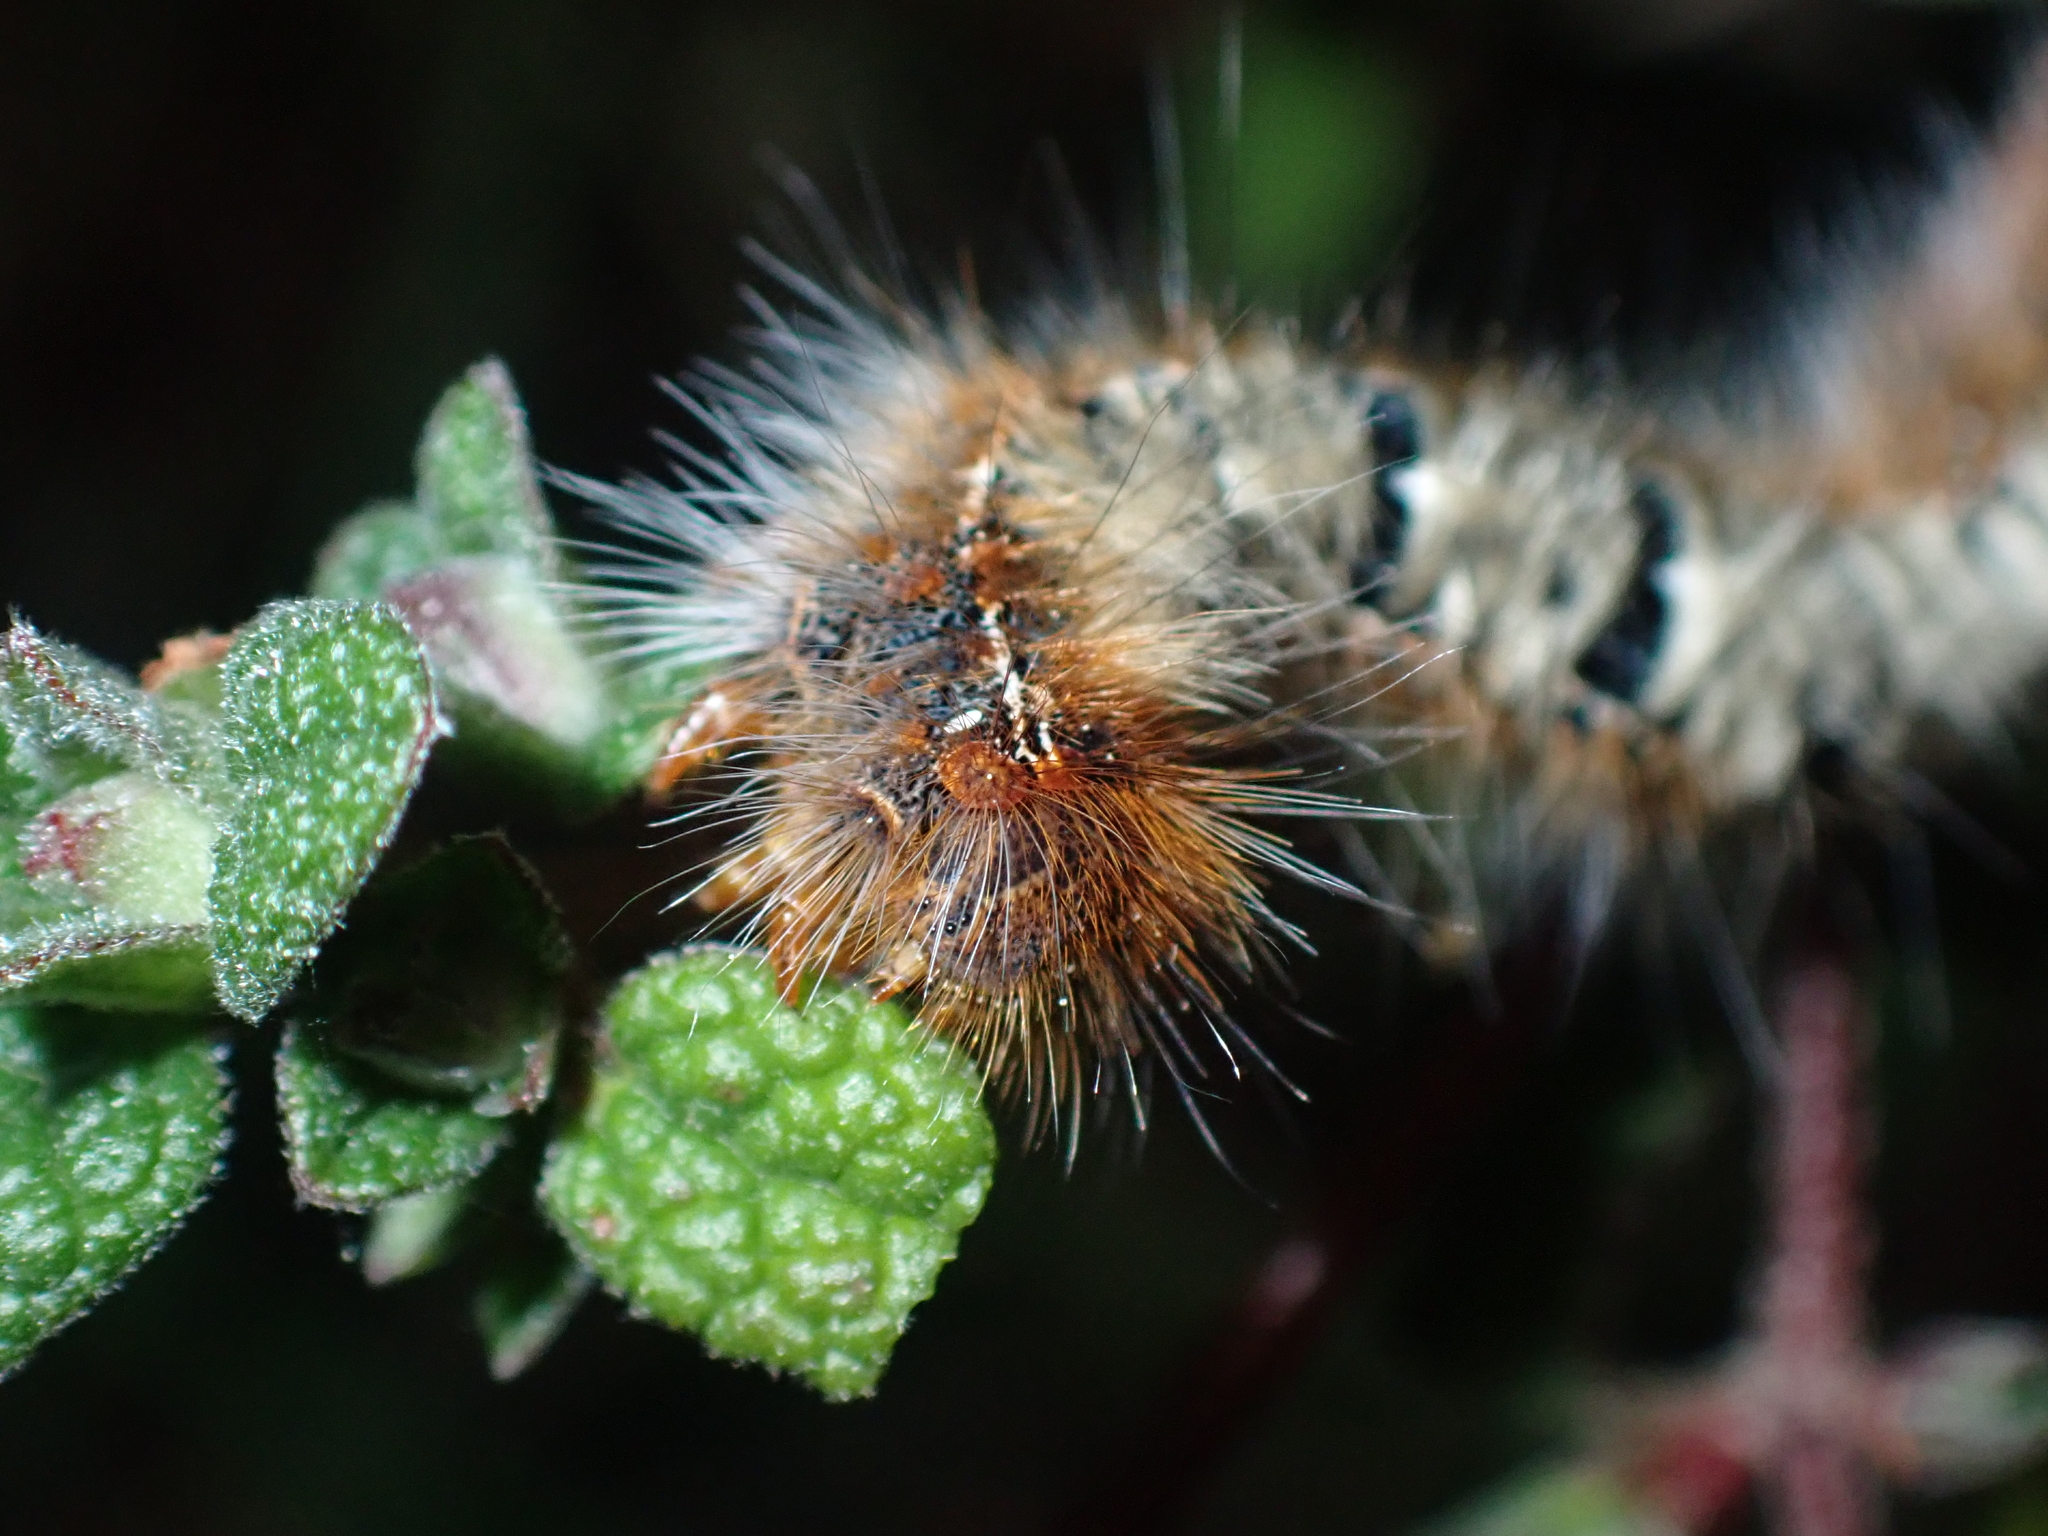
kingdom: Animalia
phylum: Arthropoda
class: Insecta
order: Lepidoptera
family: Lasiocampidae
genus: Lasiocampa
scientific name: Lasiocampa quercus
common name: Oak eggar
